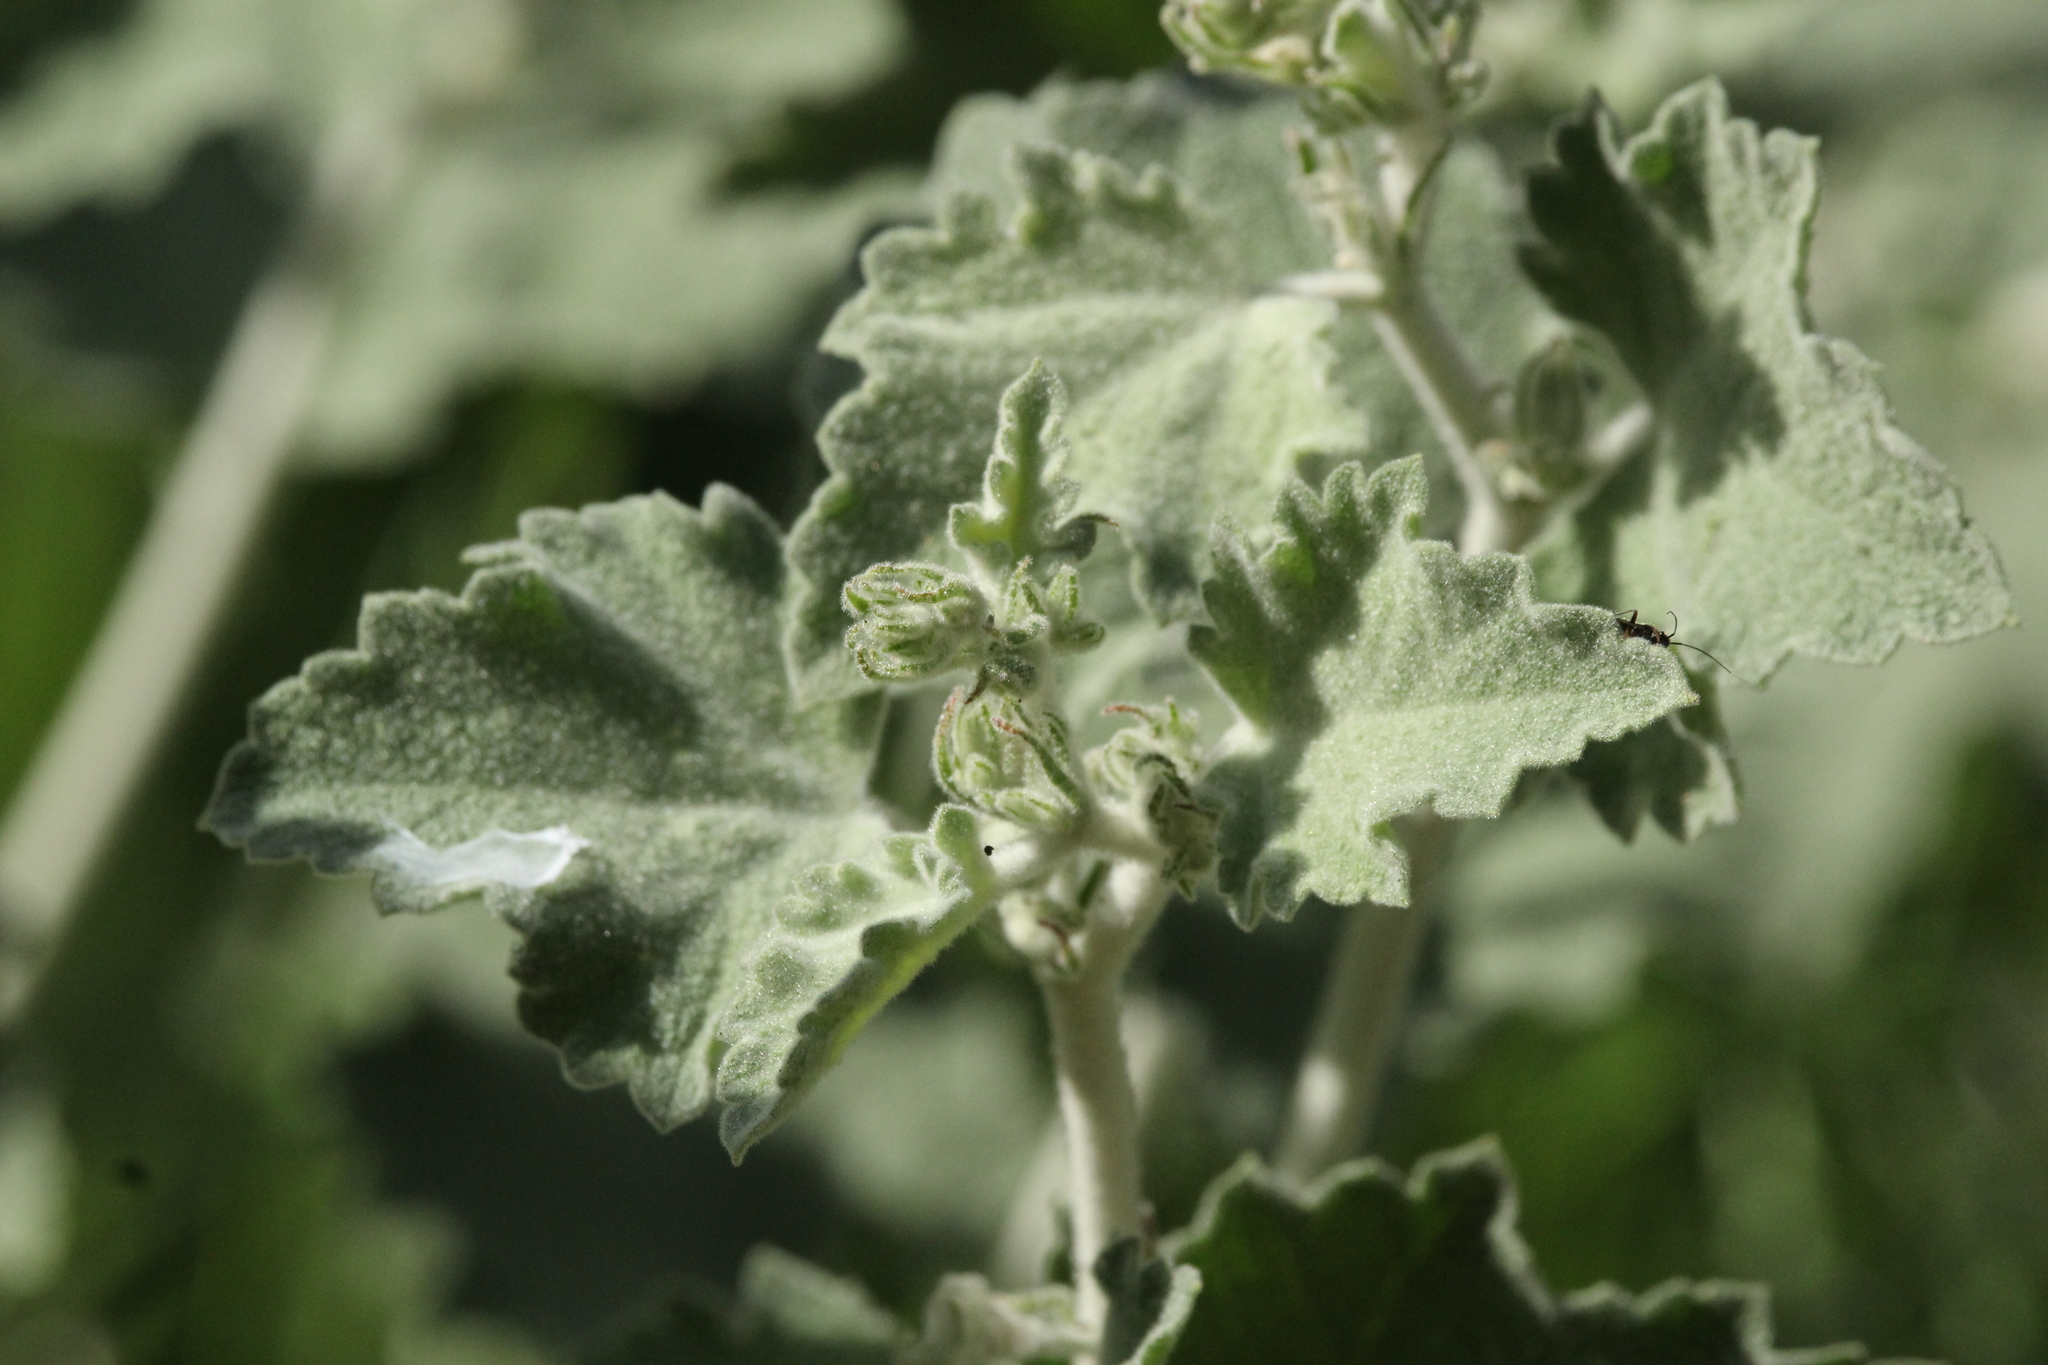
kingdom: Plantae
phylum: Tracheophyta
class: Magnoliopsida
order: Malvales
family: Malvaceae
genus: Malacothamnus
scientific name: Malacothamnus fremontii
